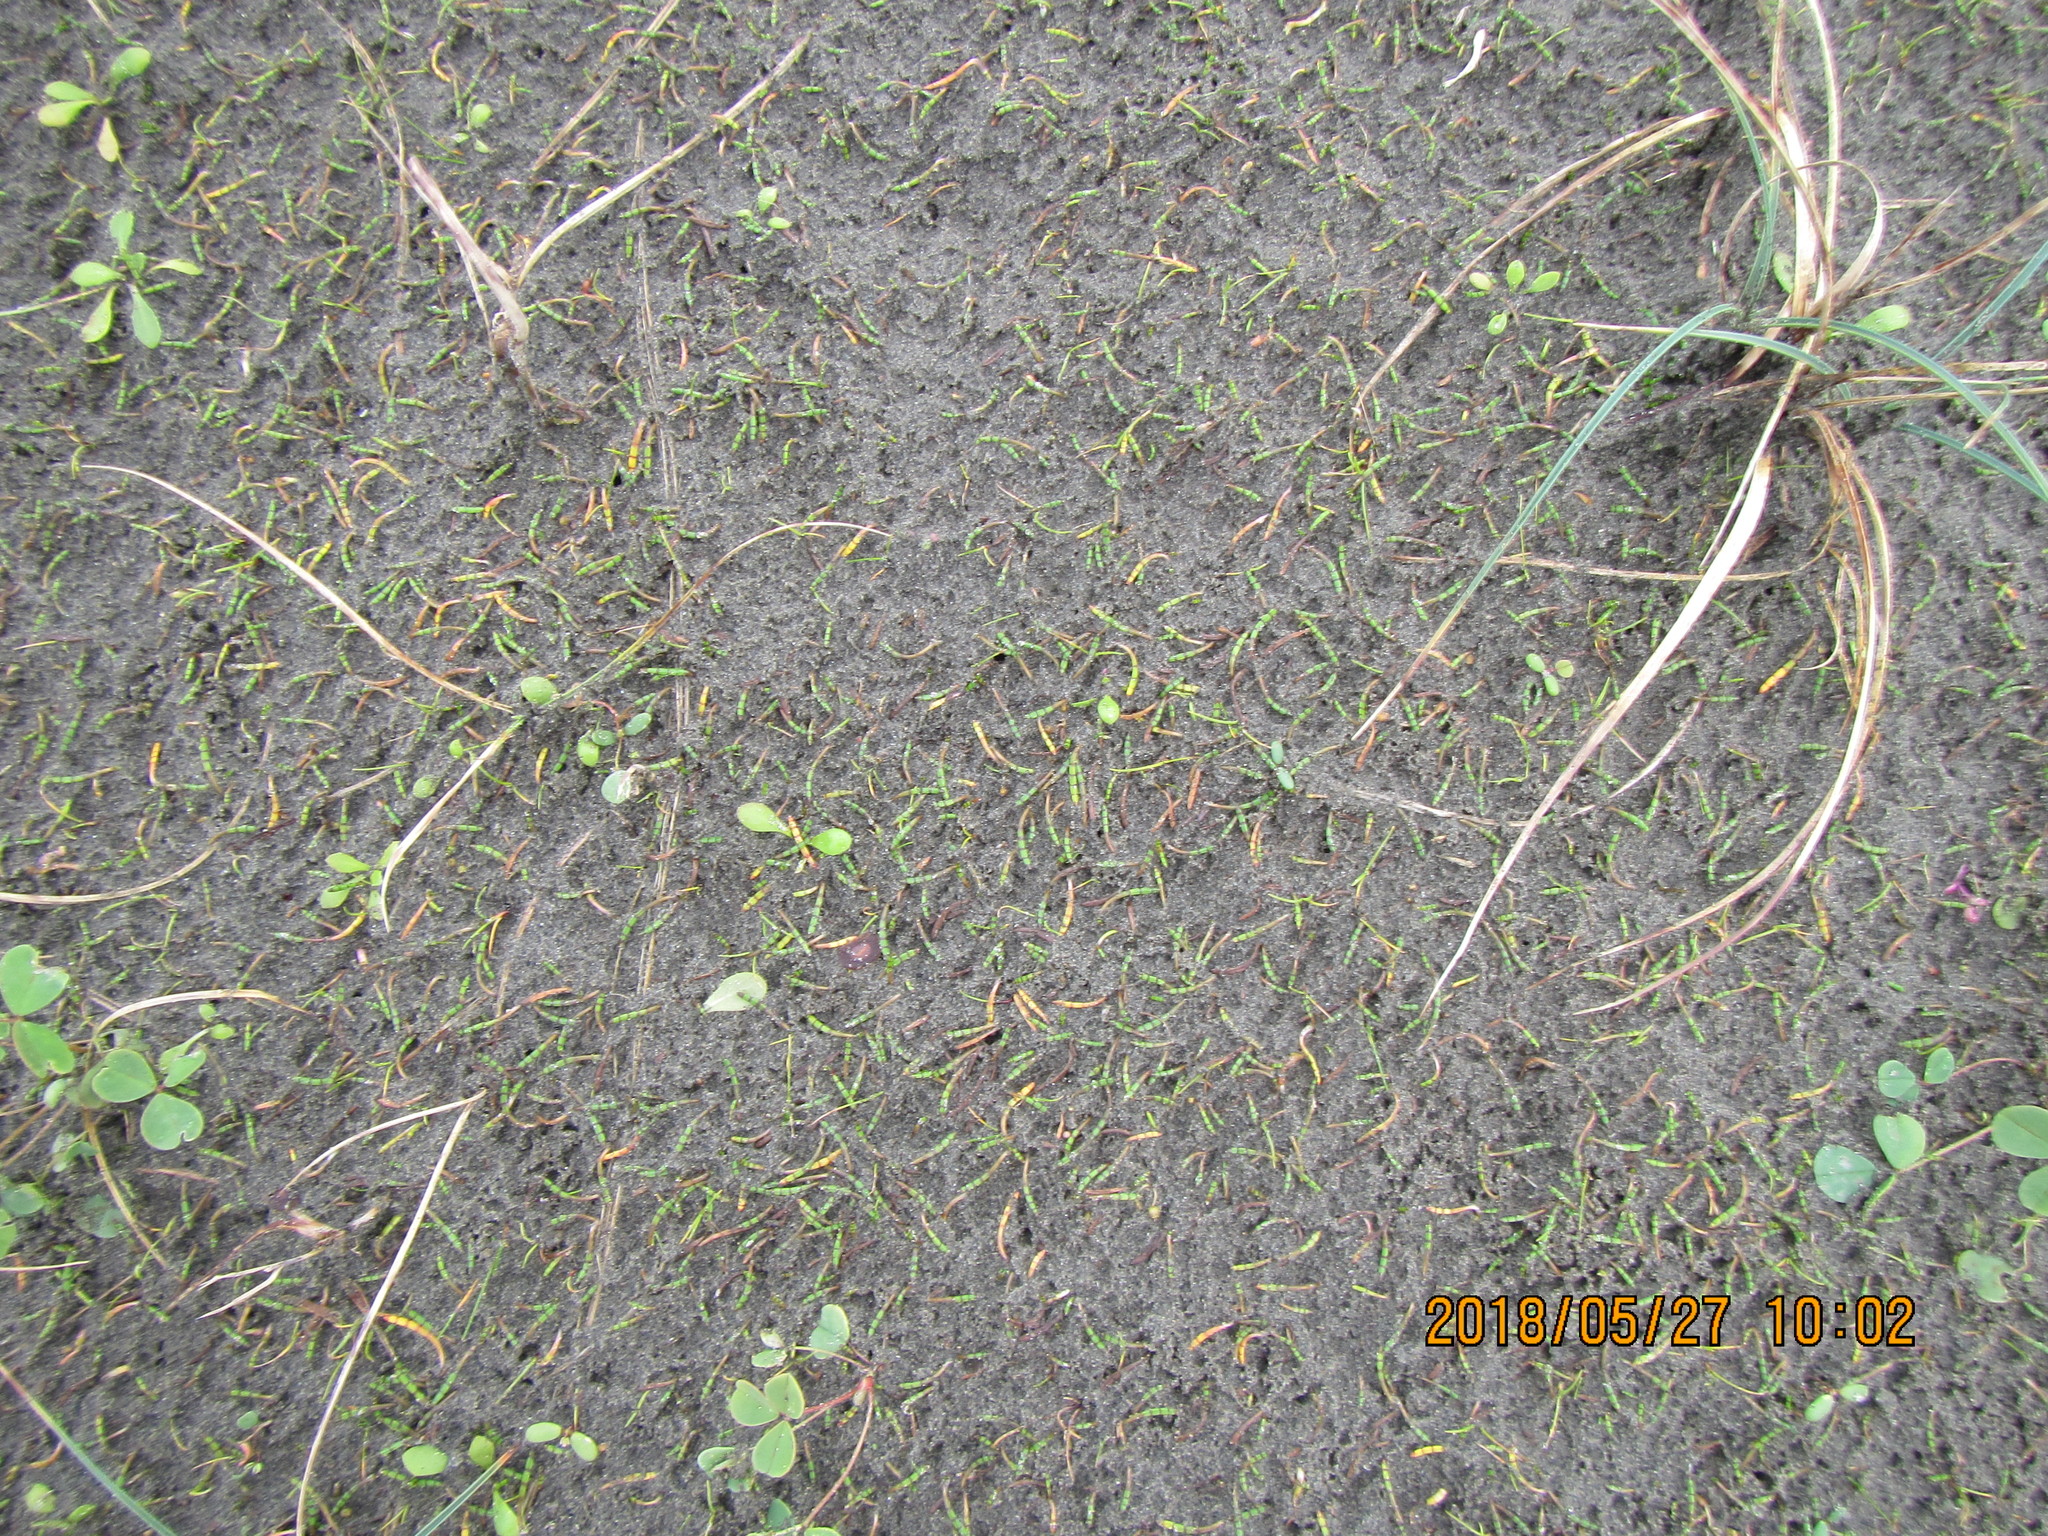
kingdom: Plantae
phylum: Tracheophyta
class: Magnoliopsida
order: Apiales
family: Apiaceae
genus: Lilaeopsis
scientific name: Lilaeopsis novae-zelandiae
